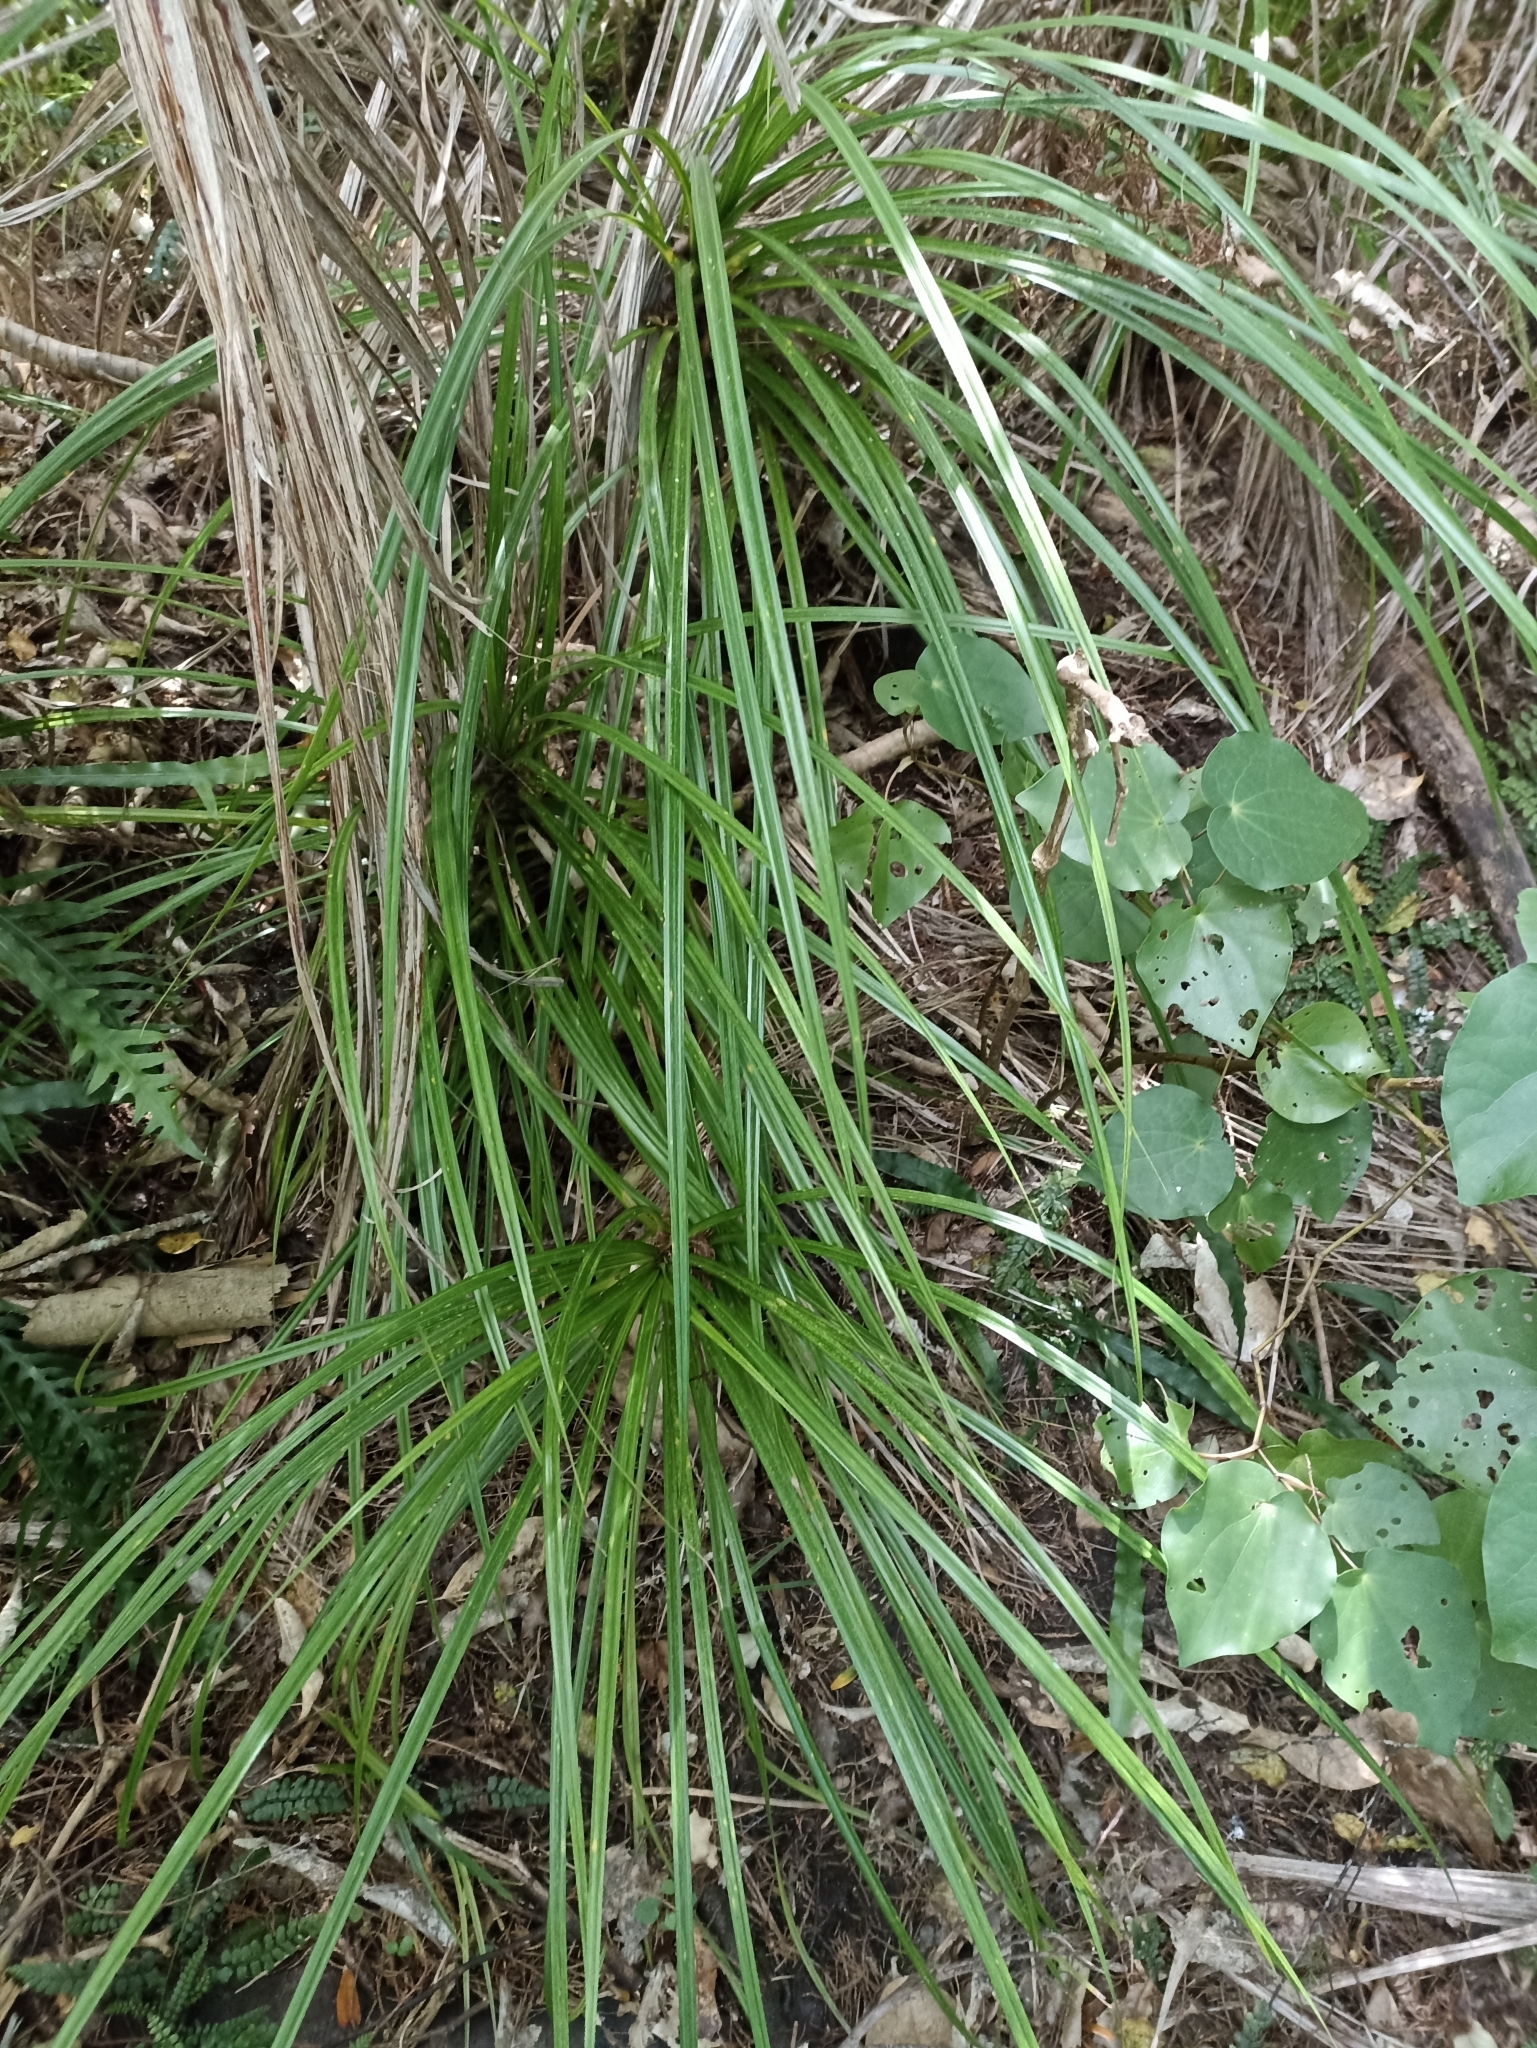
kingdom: Plantae
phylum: Tracheophyta
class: Liliopsida
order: Pandanales
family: Pandanaceae
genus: Freycinetia
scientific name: Freycinetia banksii
